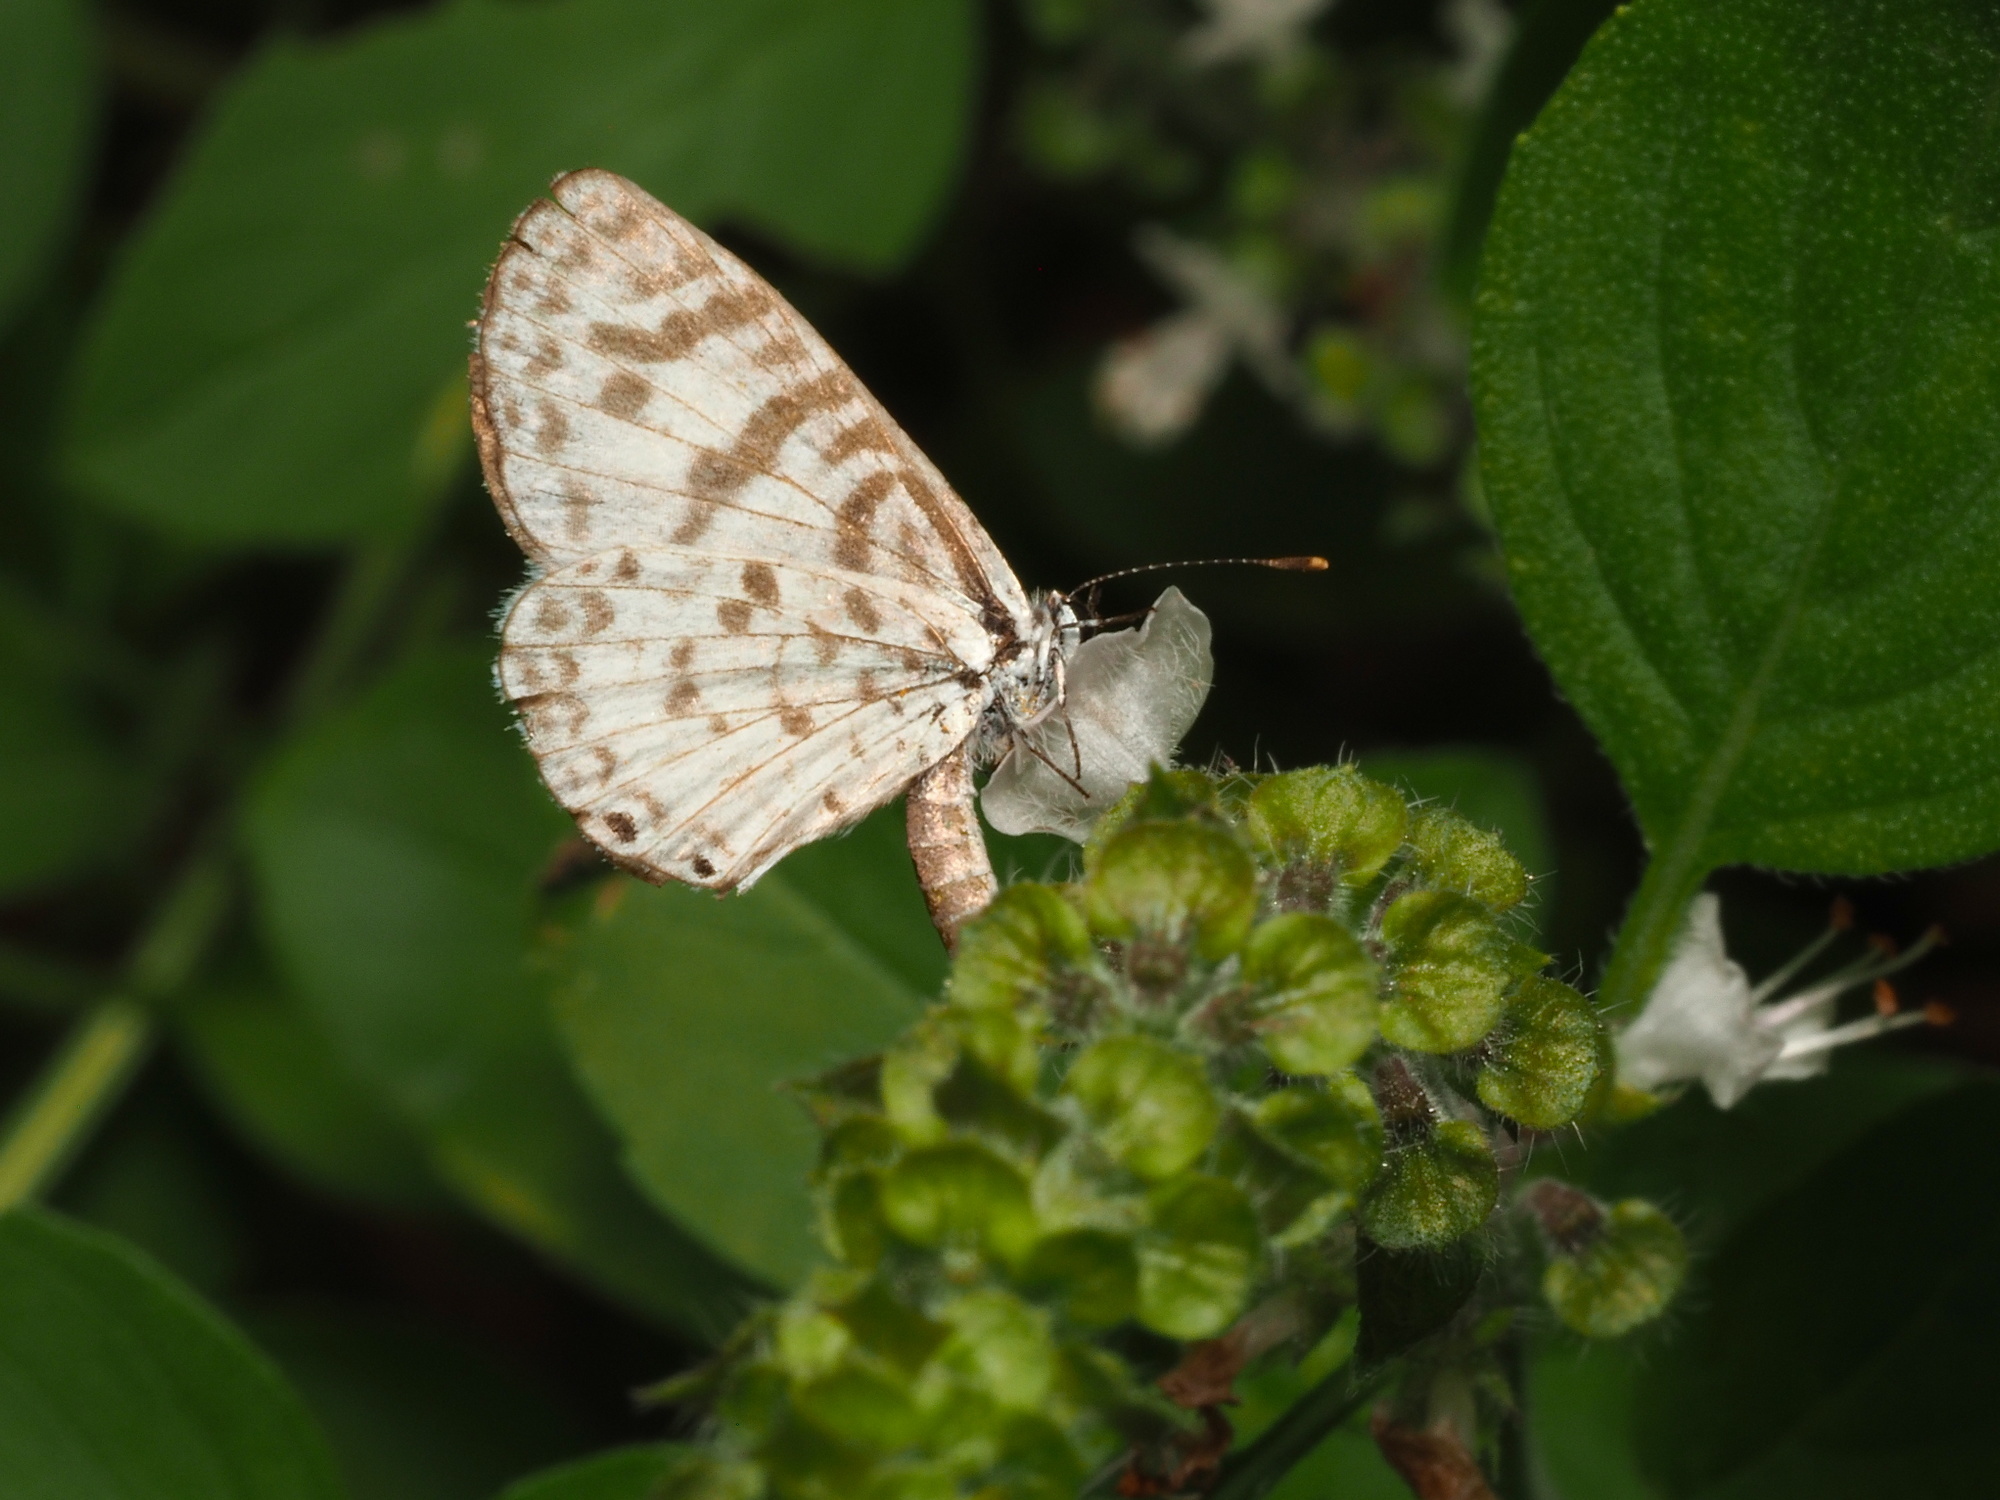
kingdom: Animalia
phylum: Arthropoda
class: Insecta
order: Lepidoptera
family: Lycaenidae
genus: Leptotes
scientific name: Leptotes cassius
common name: Cassius blue
